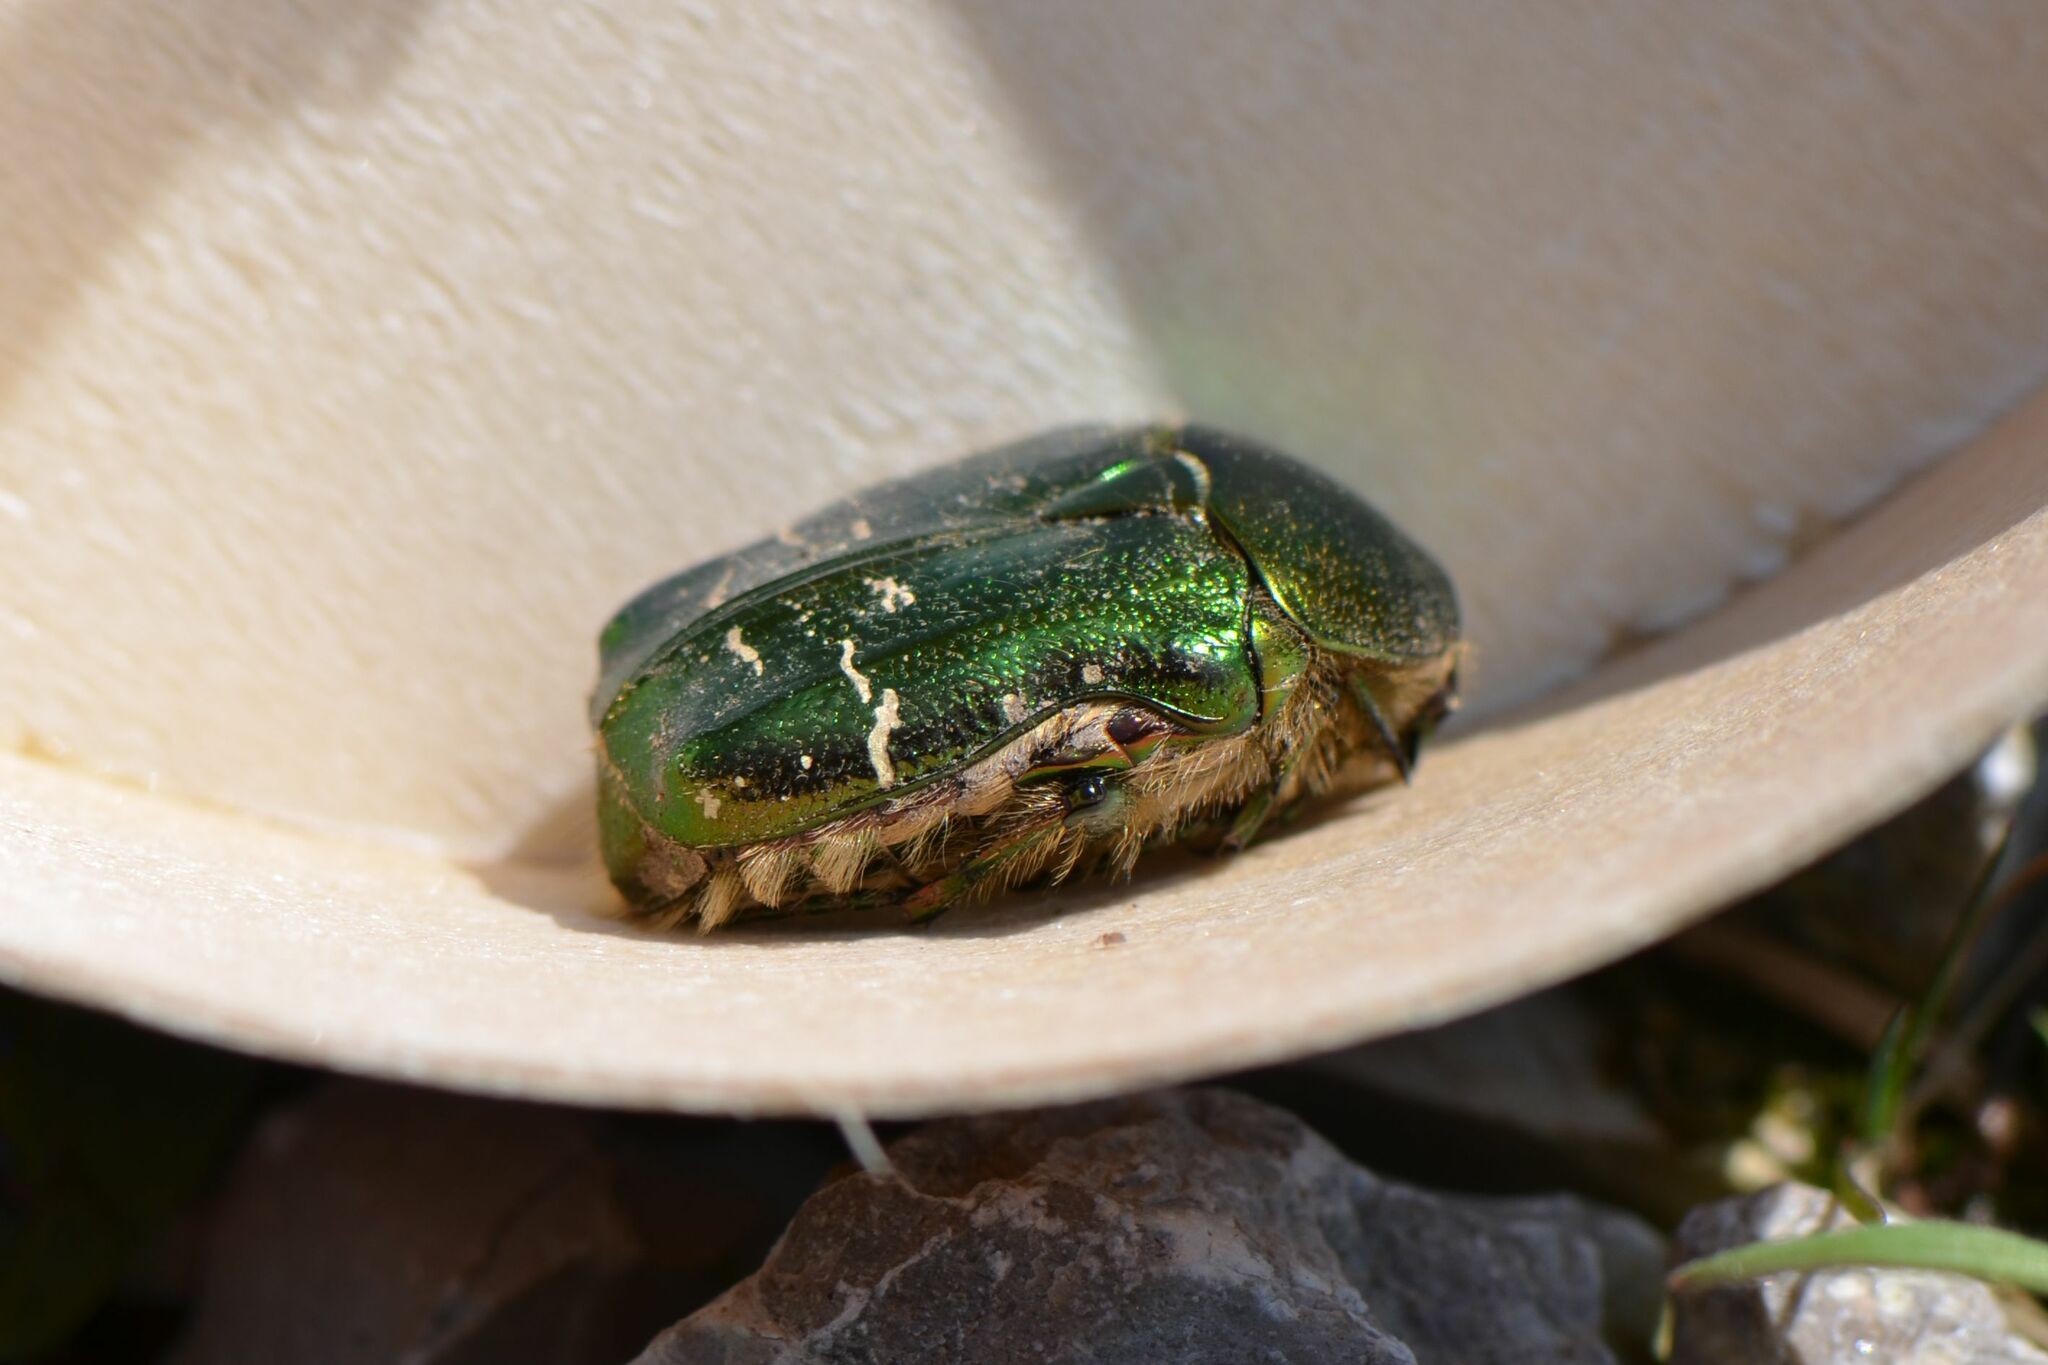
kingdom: Animalia
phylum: Arthropoda
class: Insecta
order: Coleoptera
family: Scarabaeidae
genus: Cetonia
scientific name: Cetonia aurata
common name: Rose chafer
